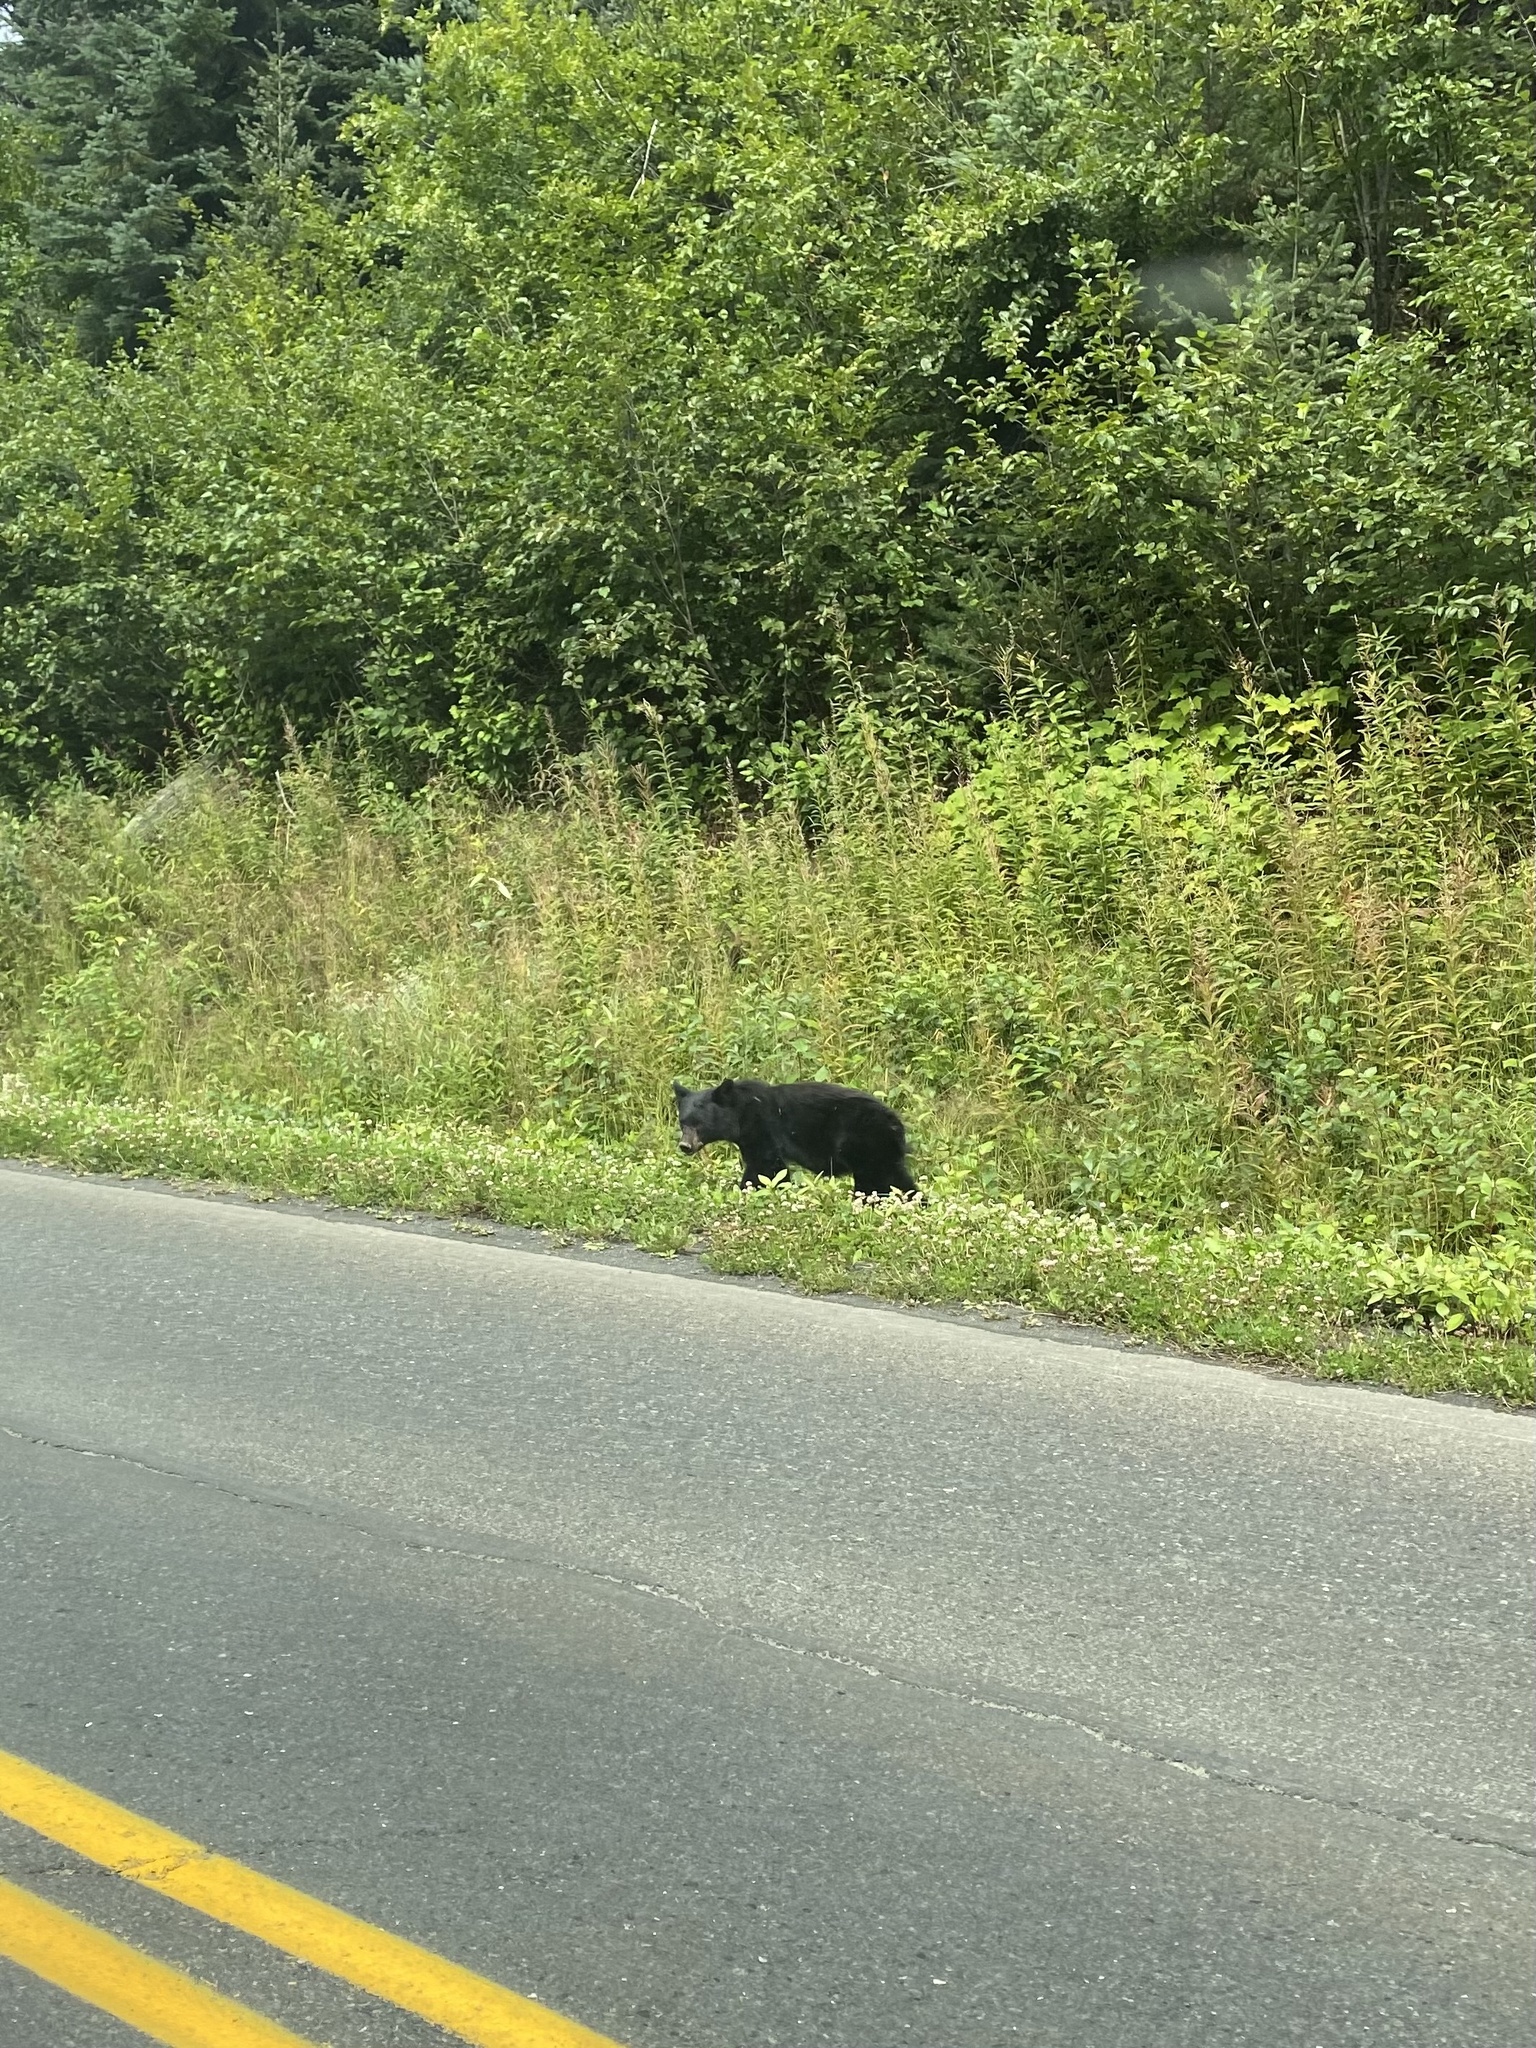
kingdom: Animalia
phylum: Chordata
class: Mammalia
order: Carnivora
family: Ursidae
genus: Ursus
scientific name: Ursus americanus
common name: American black bear
